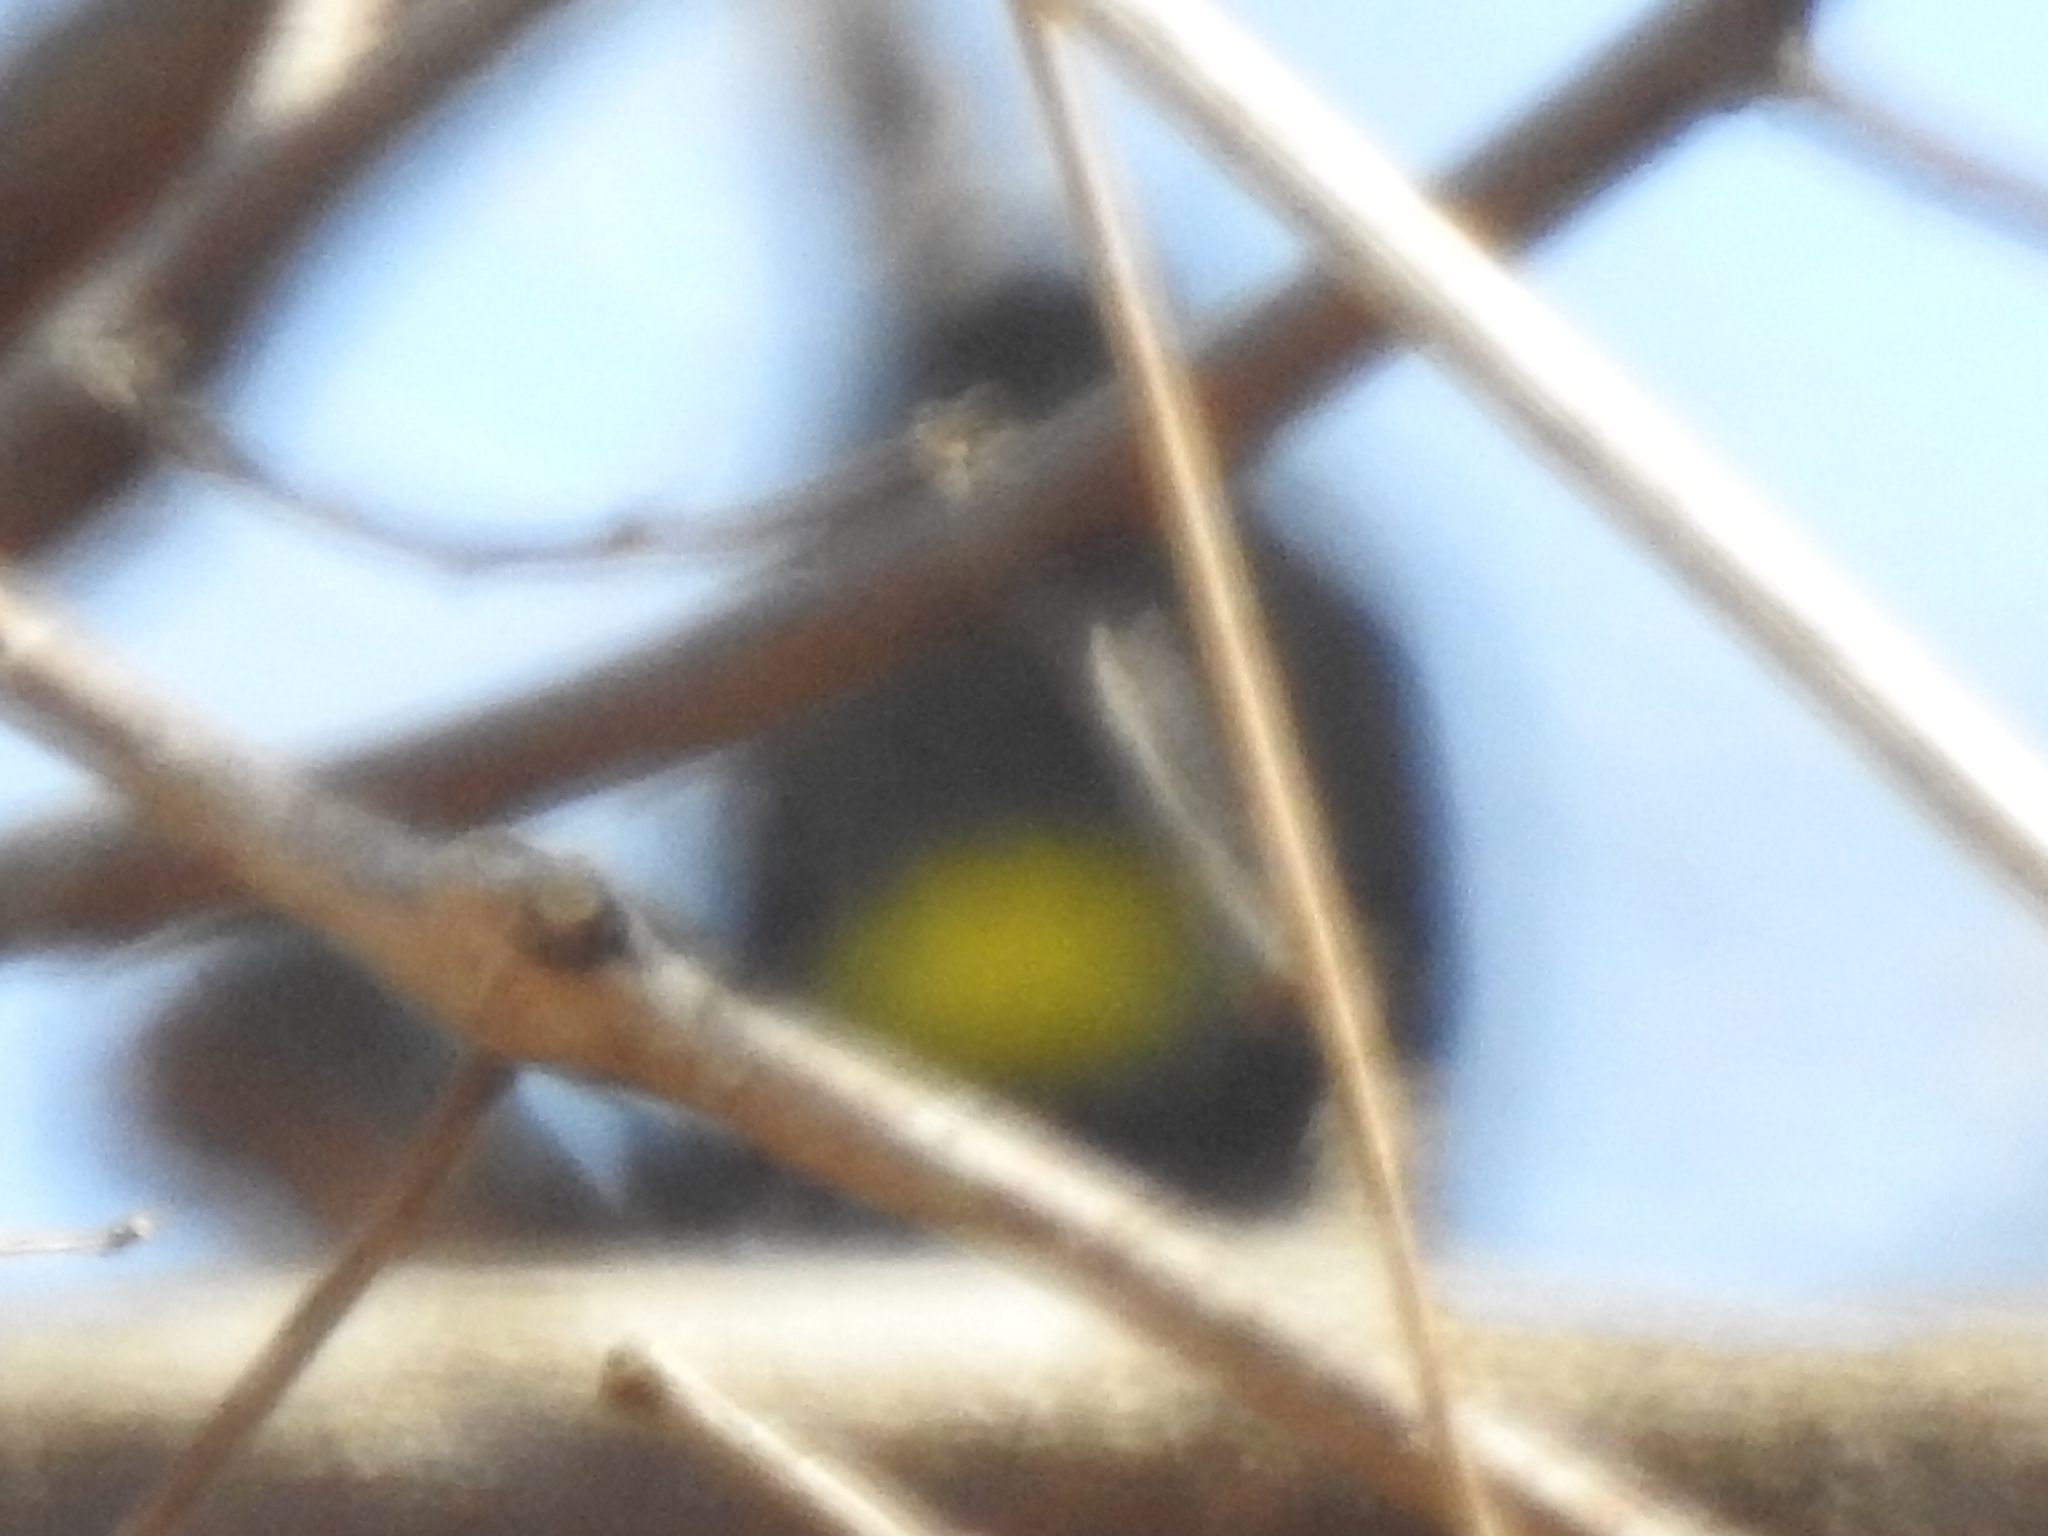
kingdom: Animalia
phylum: Chordata
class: Aves
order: Passeriformes
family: Parulidae
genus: Setophaga
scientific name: Setophaga coronata
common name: Myrtle warbler
